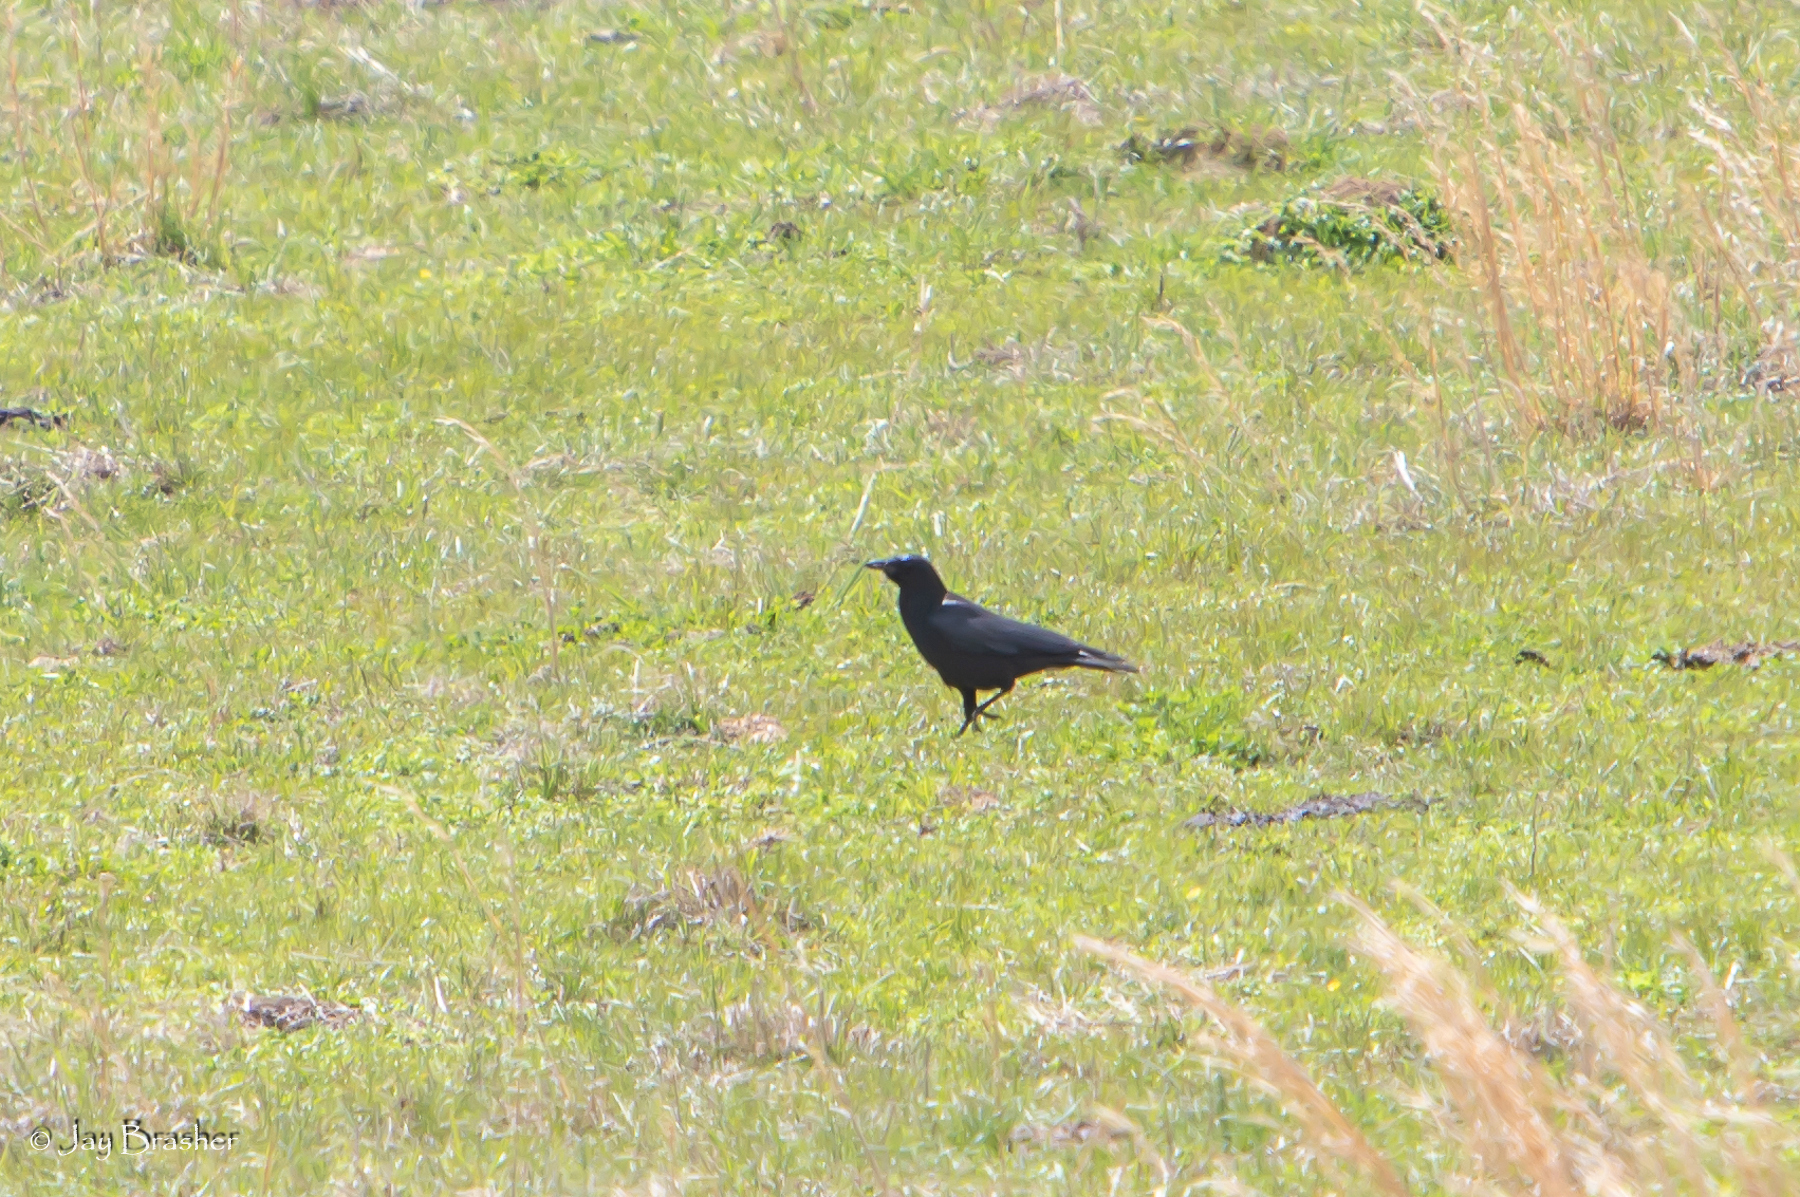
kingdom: Animalia
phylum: Chordata
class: Aves
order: Passeriformes
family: Corvidae
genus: Corvus
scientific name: Corvus brachyrhynchos
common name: American crow
